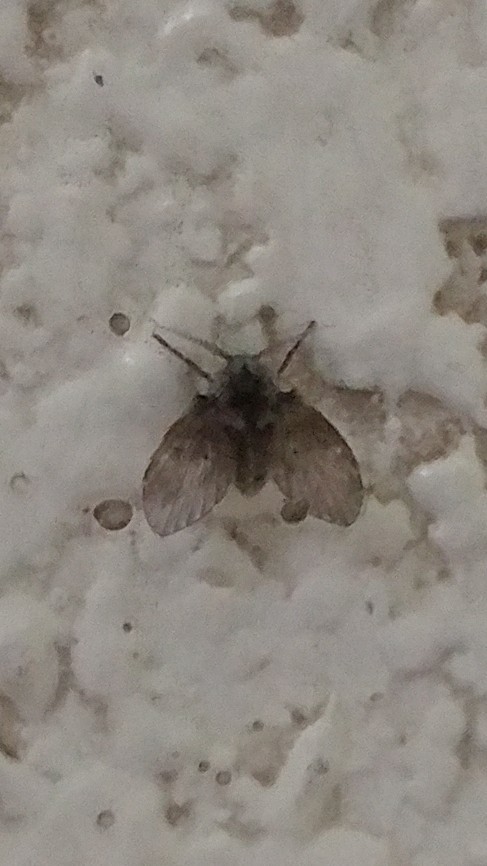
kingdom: Animalia
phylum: Arthropoda
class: Insecta
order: Diptera
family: Psychodidae
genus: Clogmia
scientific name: Clogmia albipunctatus
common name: White-spotted moth fly
